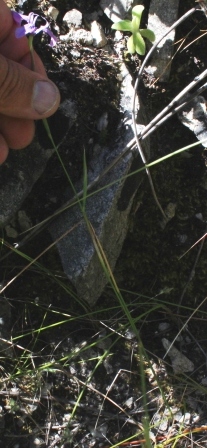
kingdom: Plantae
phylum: Tracheophyta
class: Liliopsida
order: Asparagales
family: Iridaceae
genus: Moraea
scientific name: Moraea debilis
